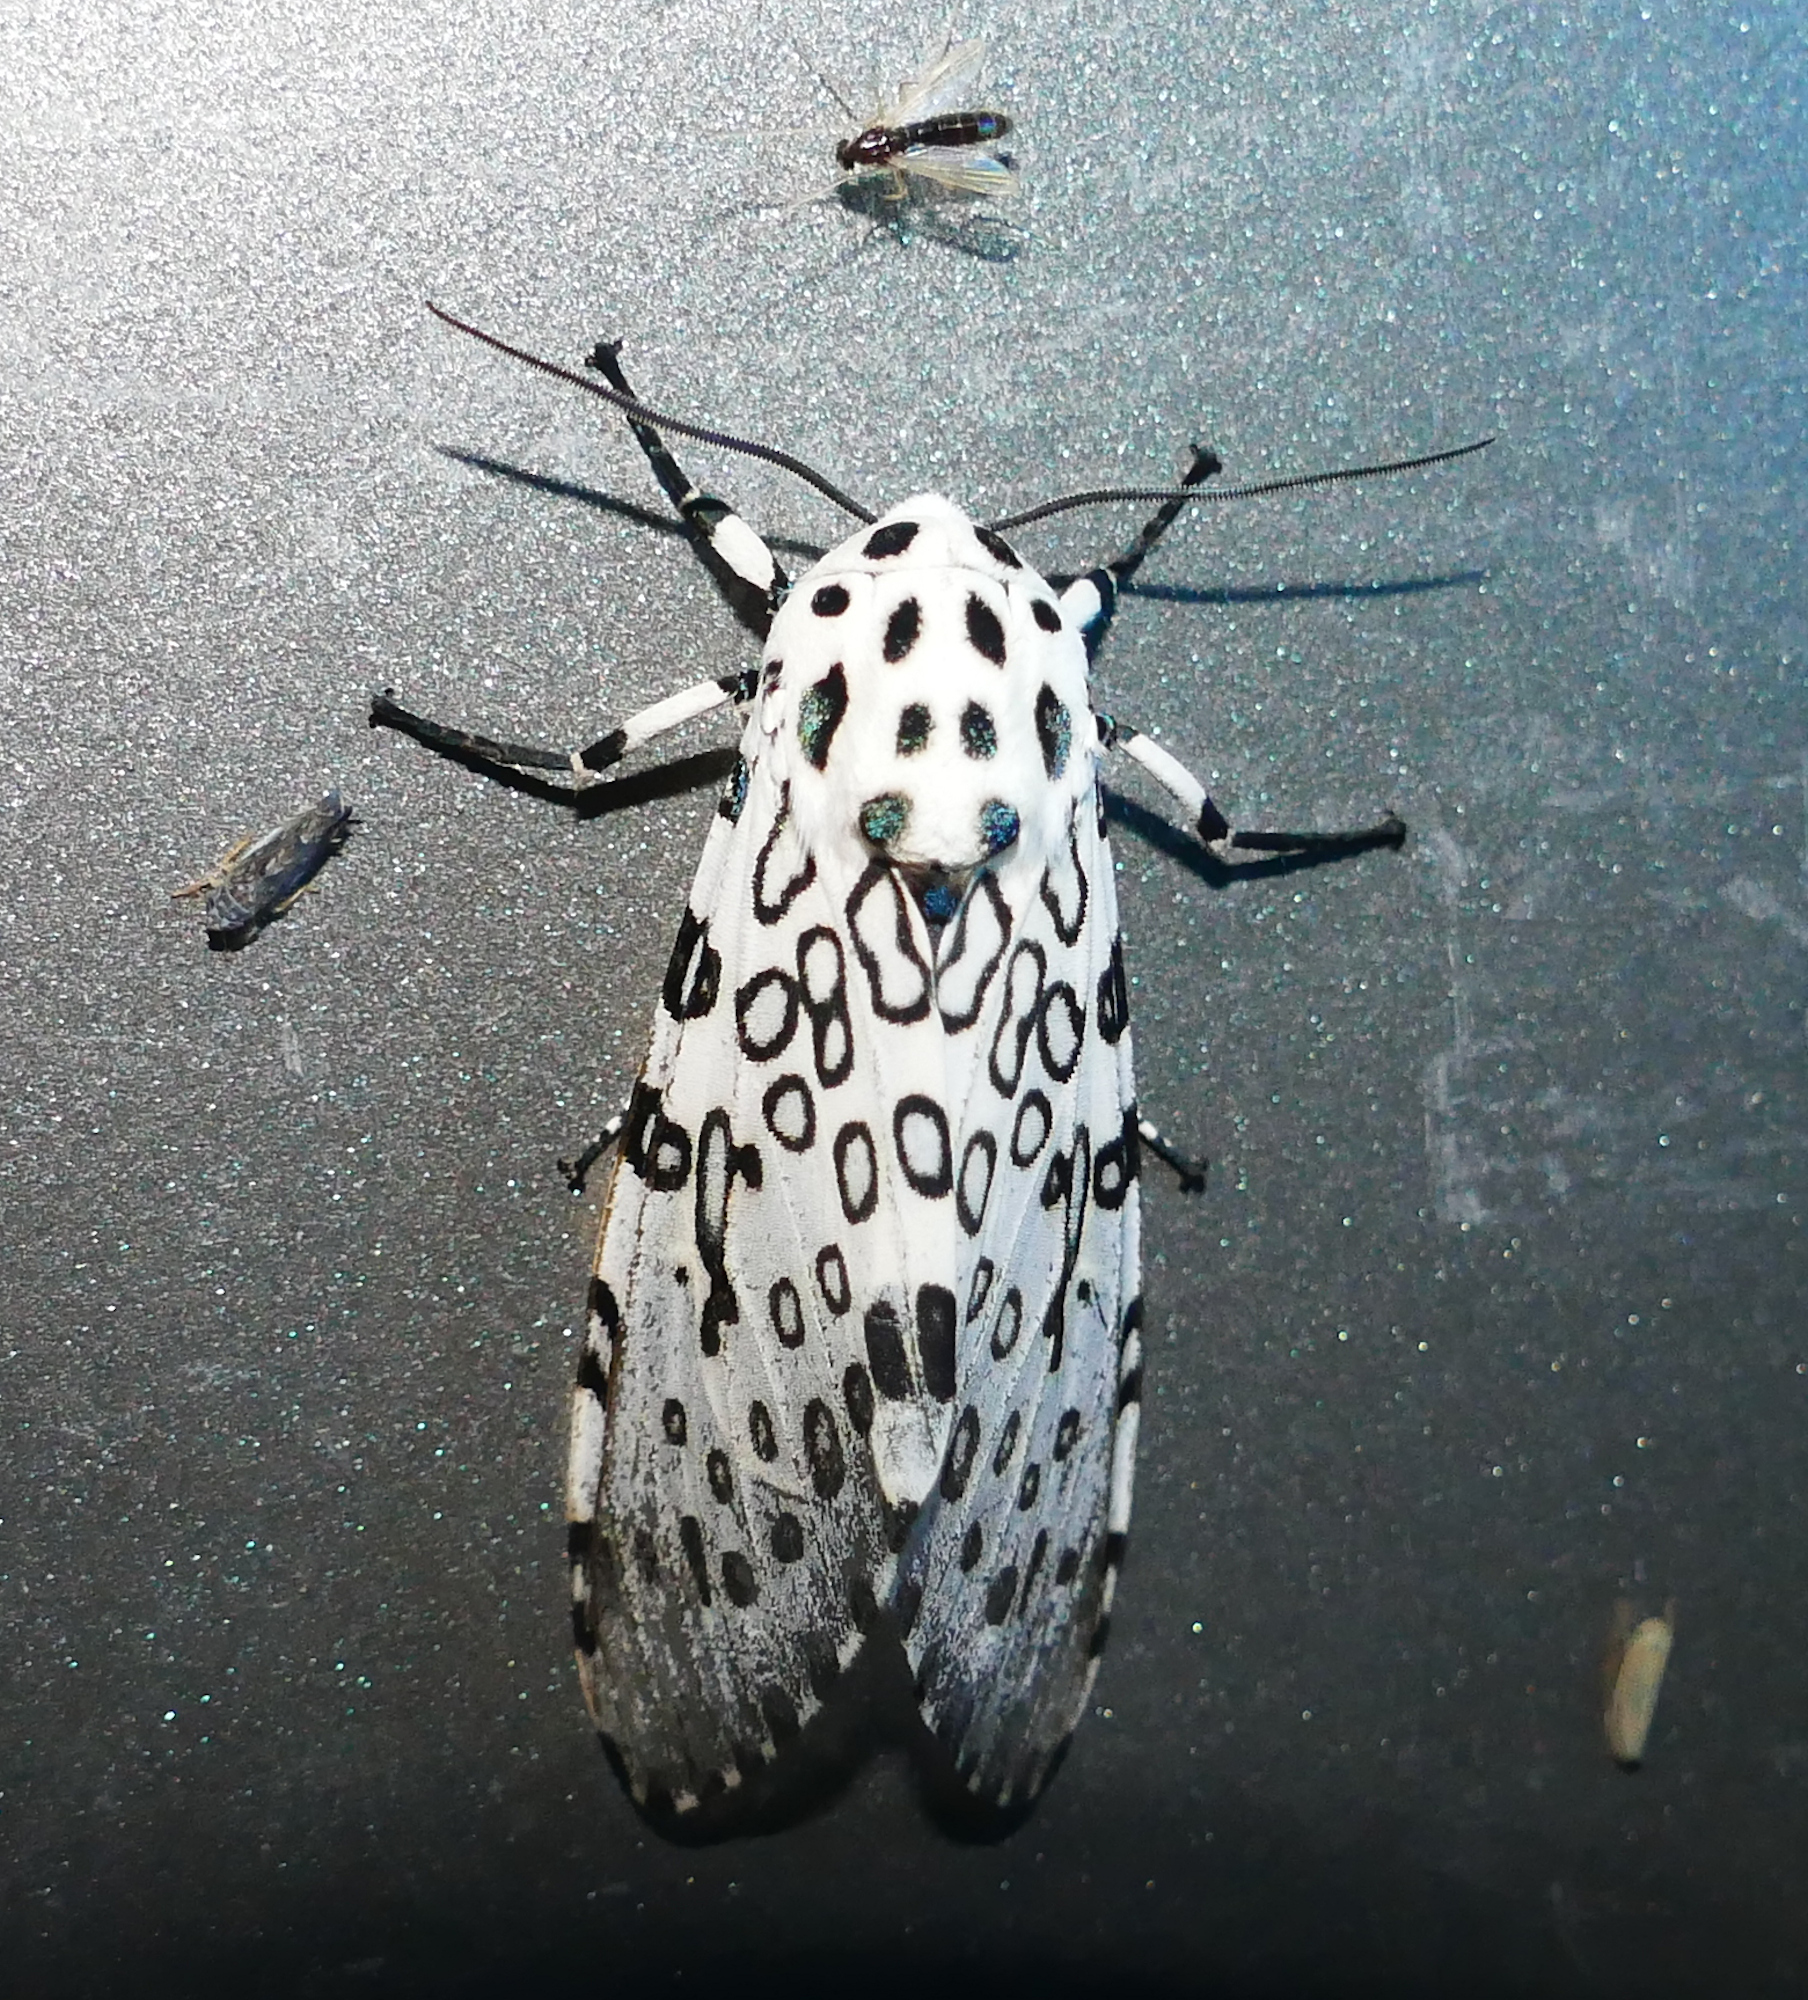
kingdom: Animalia
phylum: Arthropoda
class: Insecta
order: Lepidoptera
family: Erebidae
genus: Hypercompe
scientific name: Hypercompe scribonia
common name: Giant leopard moth
